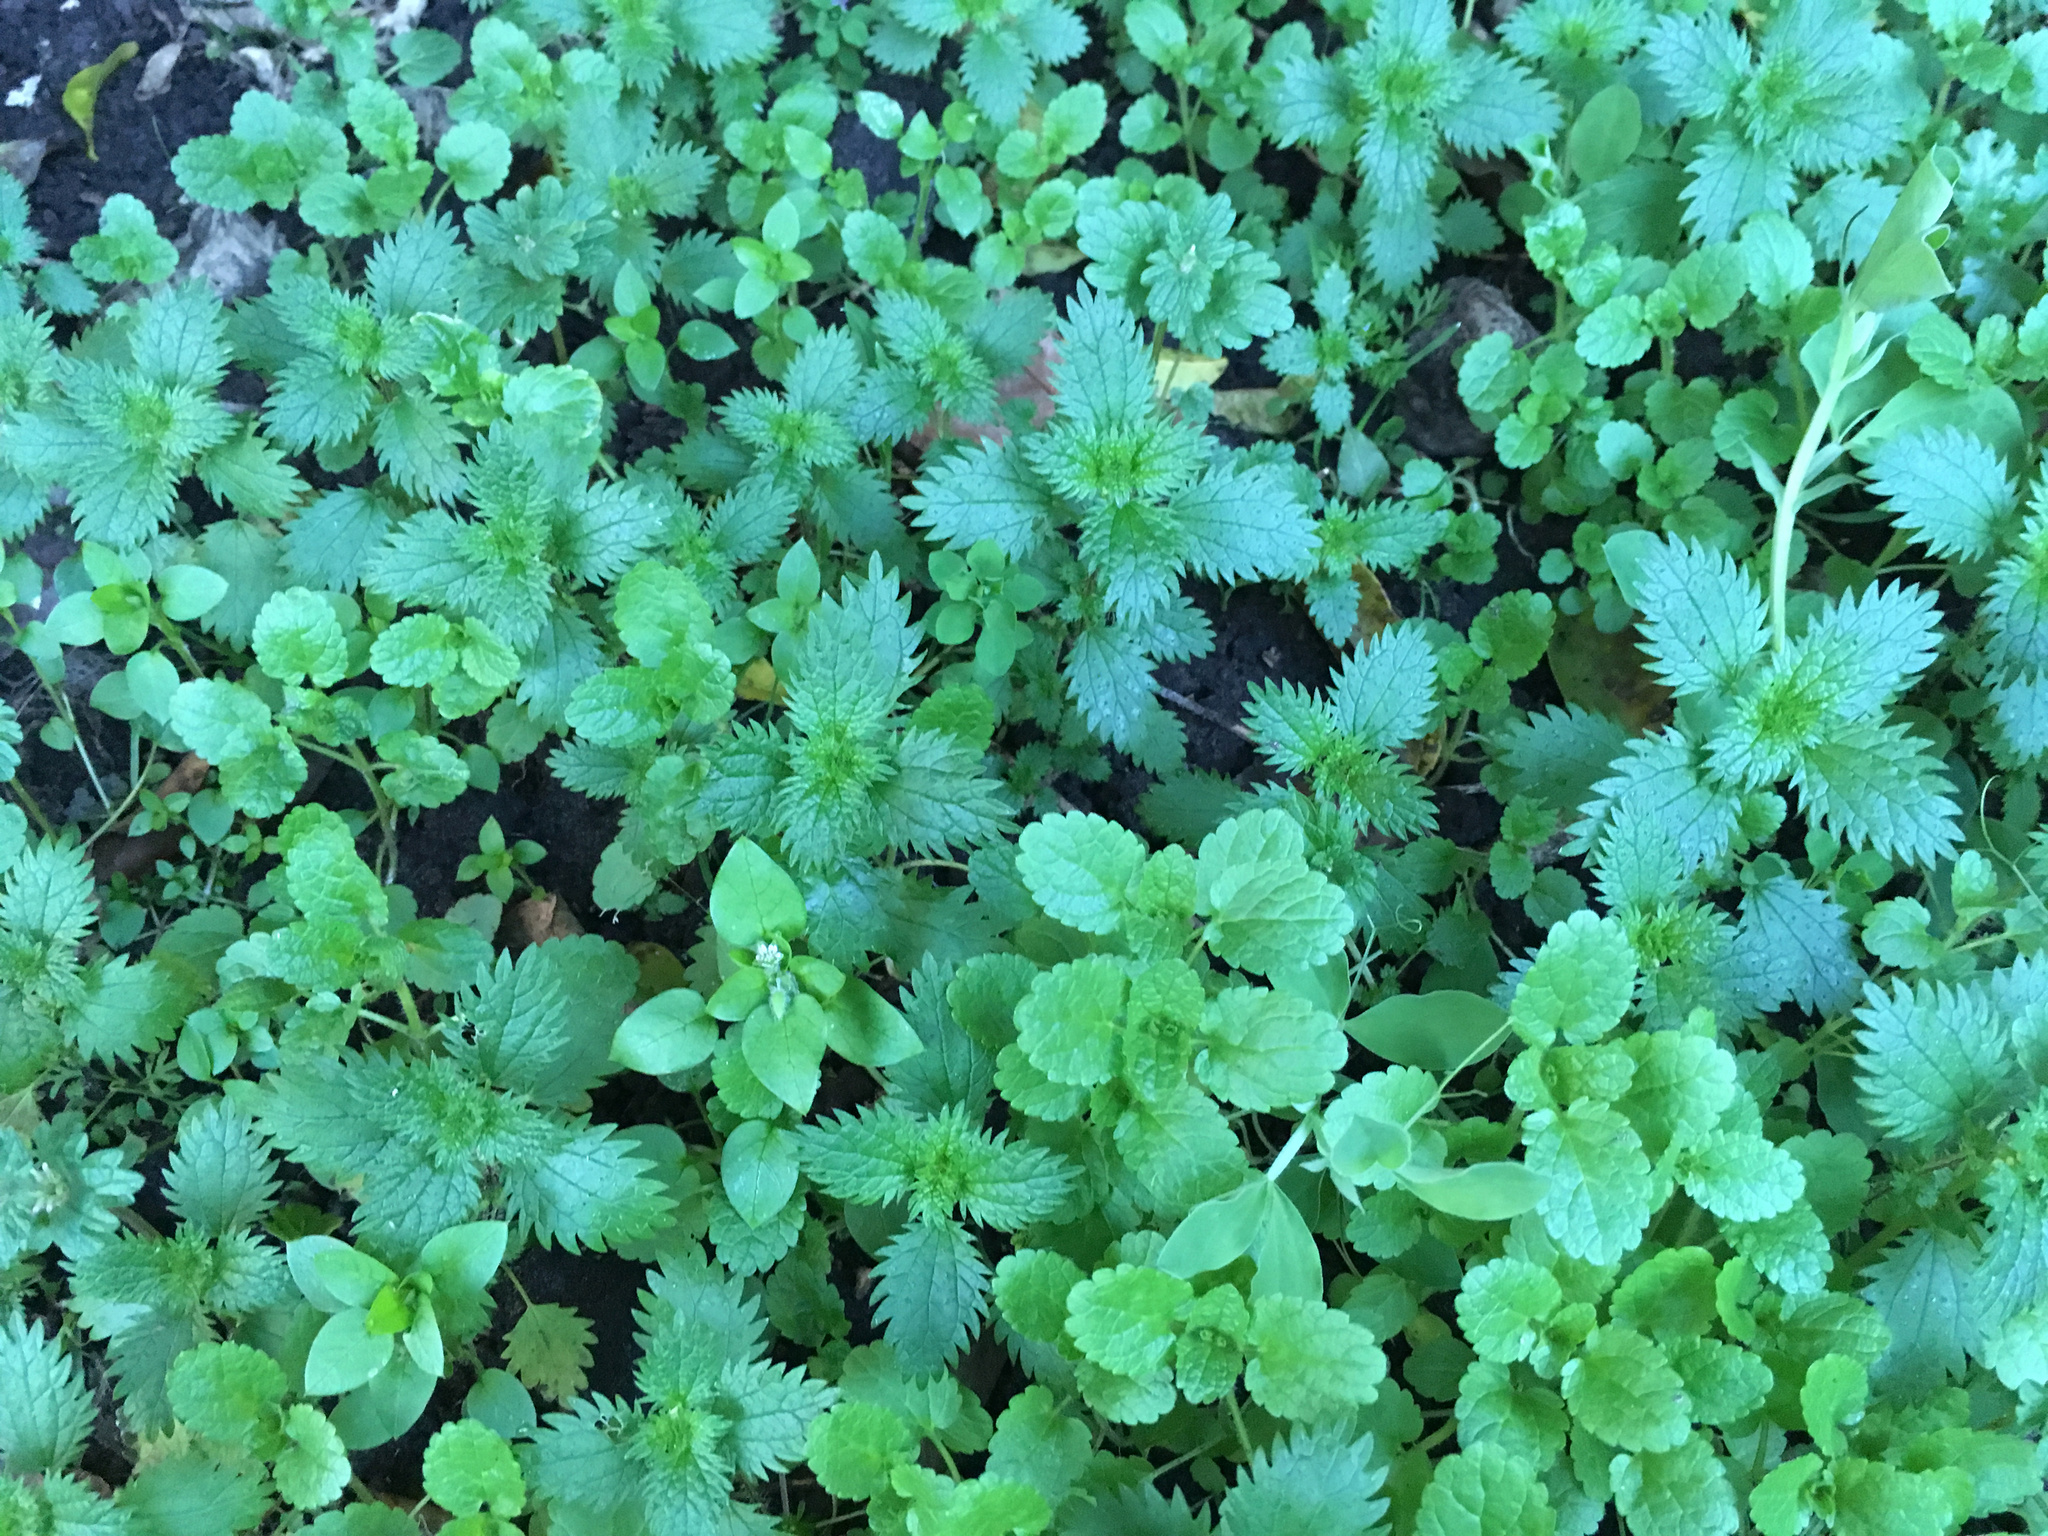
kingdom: Plantae
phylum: Tracheophyta
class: Magnoliopsida
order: Rosales
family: Urticaceae
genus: Urtica
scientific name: Urtica urens
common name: Dwarf nettle
